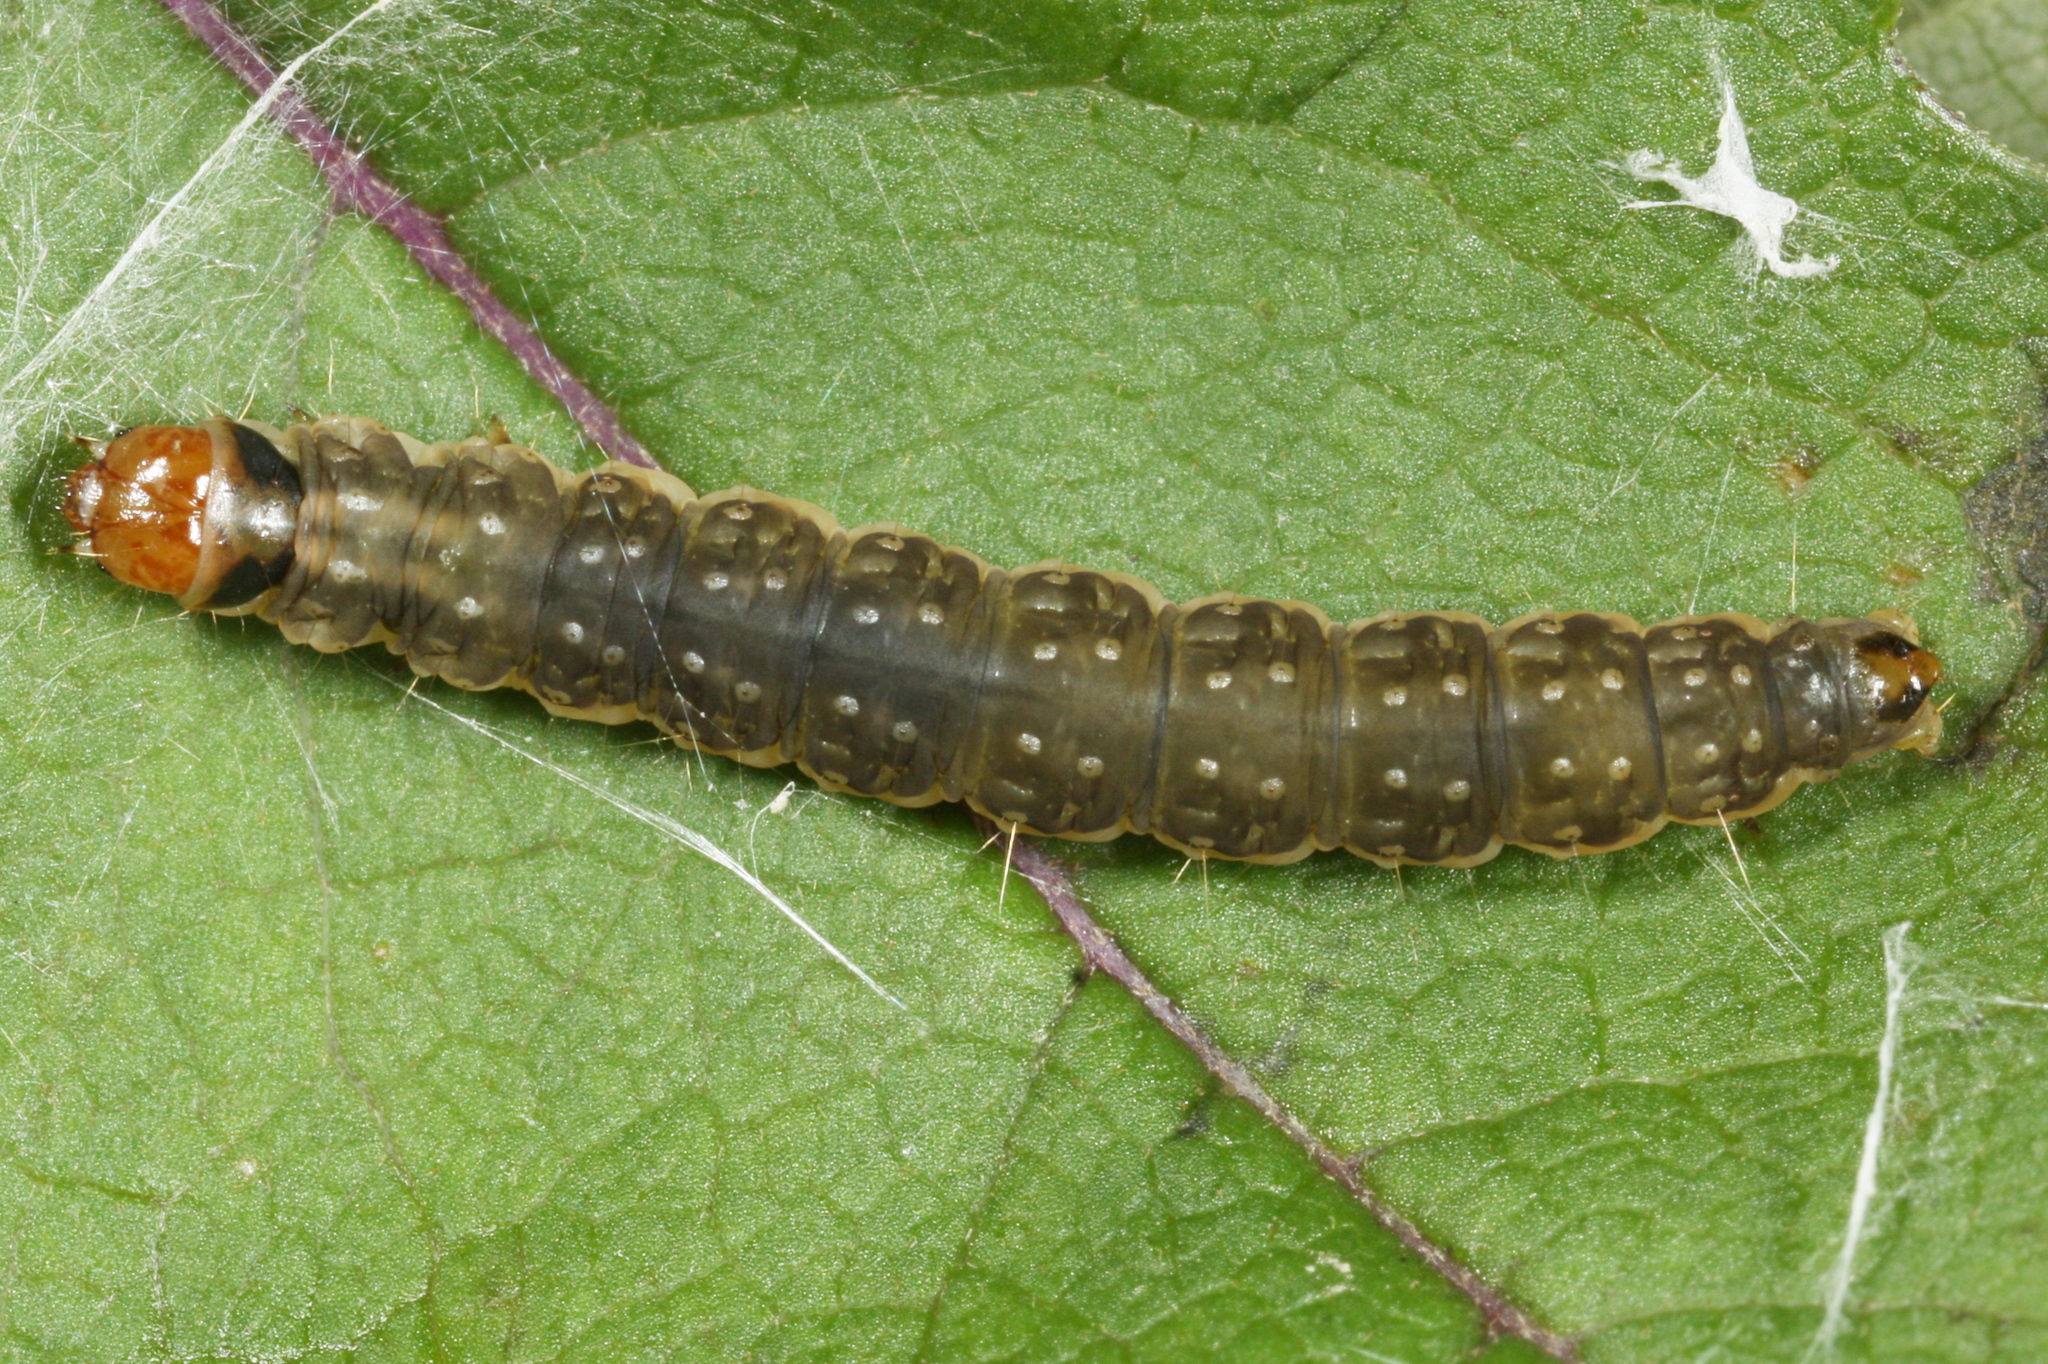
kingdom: Animalia
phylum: Arthropoda
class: Insecta
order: Lepidoptera
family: Tortricidae
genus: Syndemis
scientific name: Syndemis musculana
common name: Dark-barred twist
